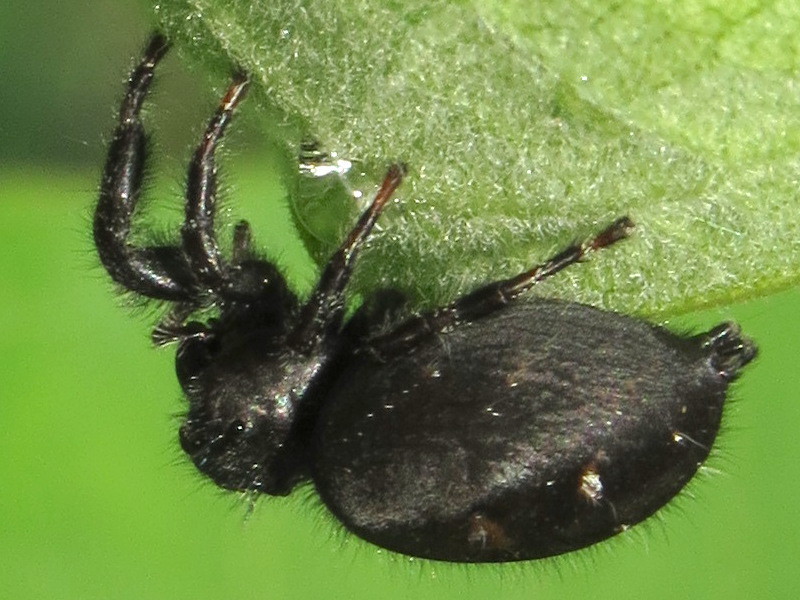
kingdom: Animalia
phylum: Arthropoda
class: Arachnida
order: Araneae
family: Salticidae
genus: Phidippus
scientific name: Phidippus audax
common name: Bold jumper
